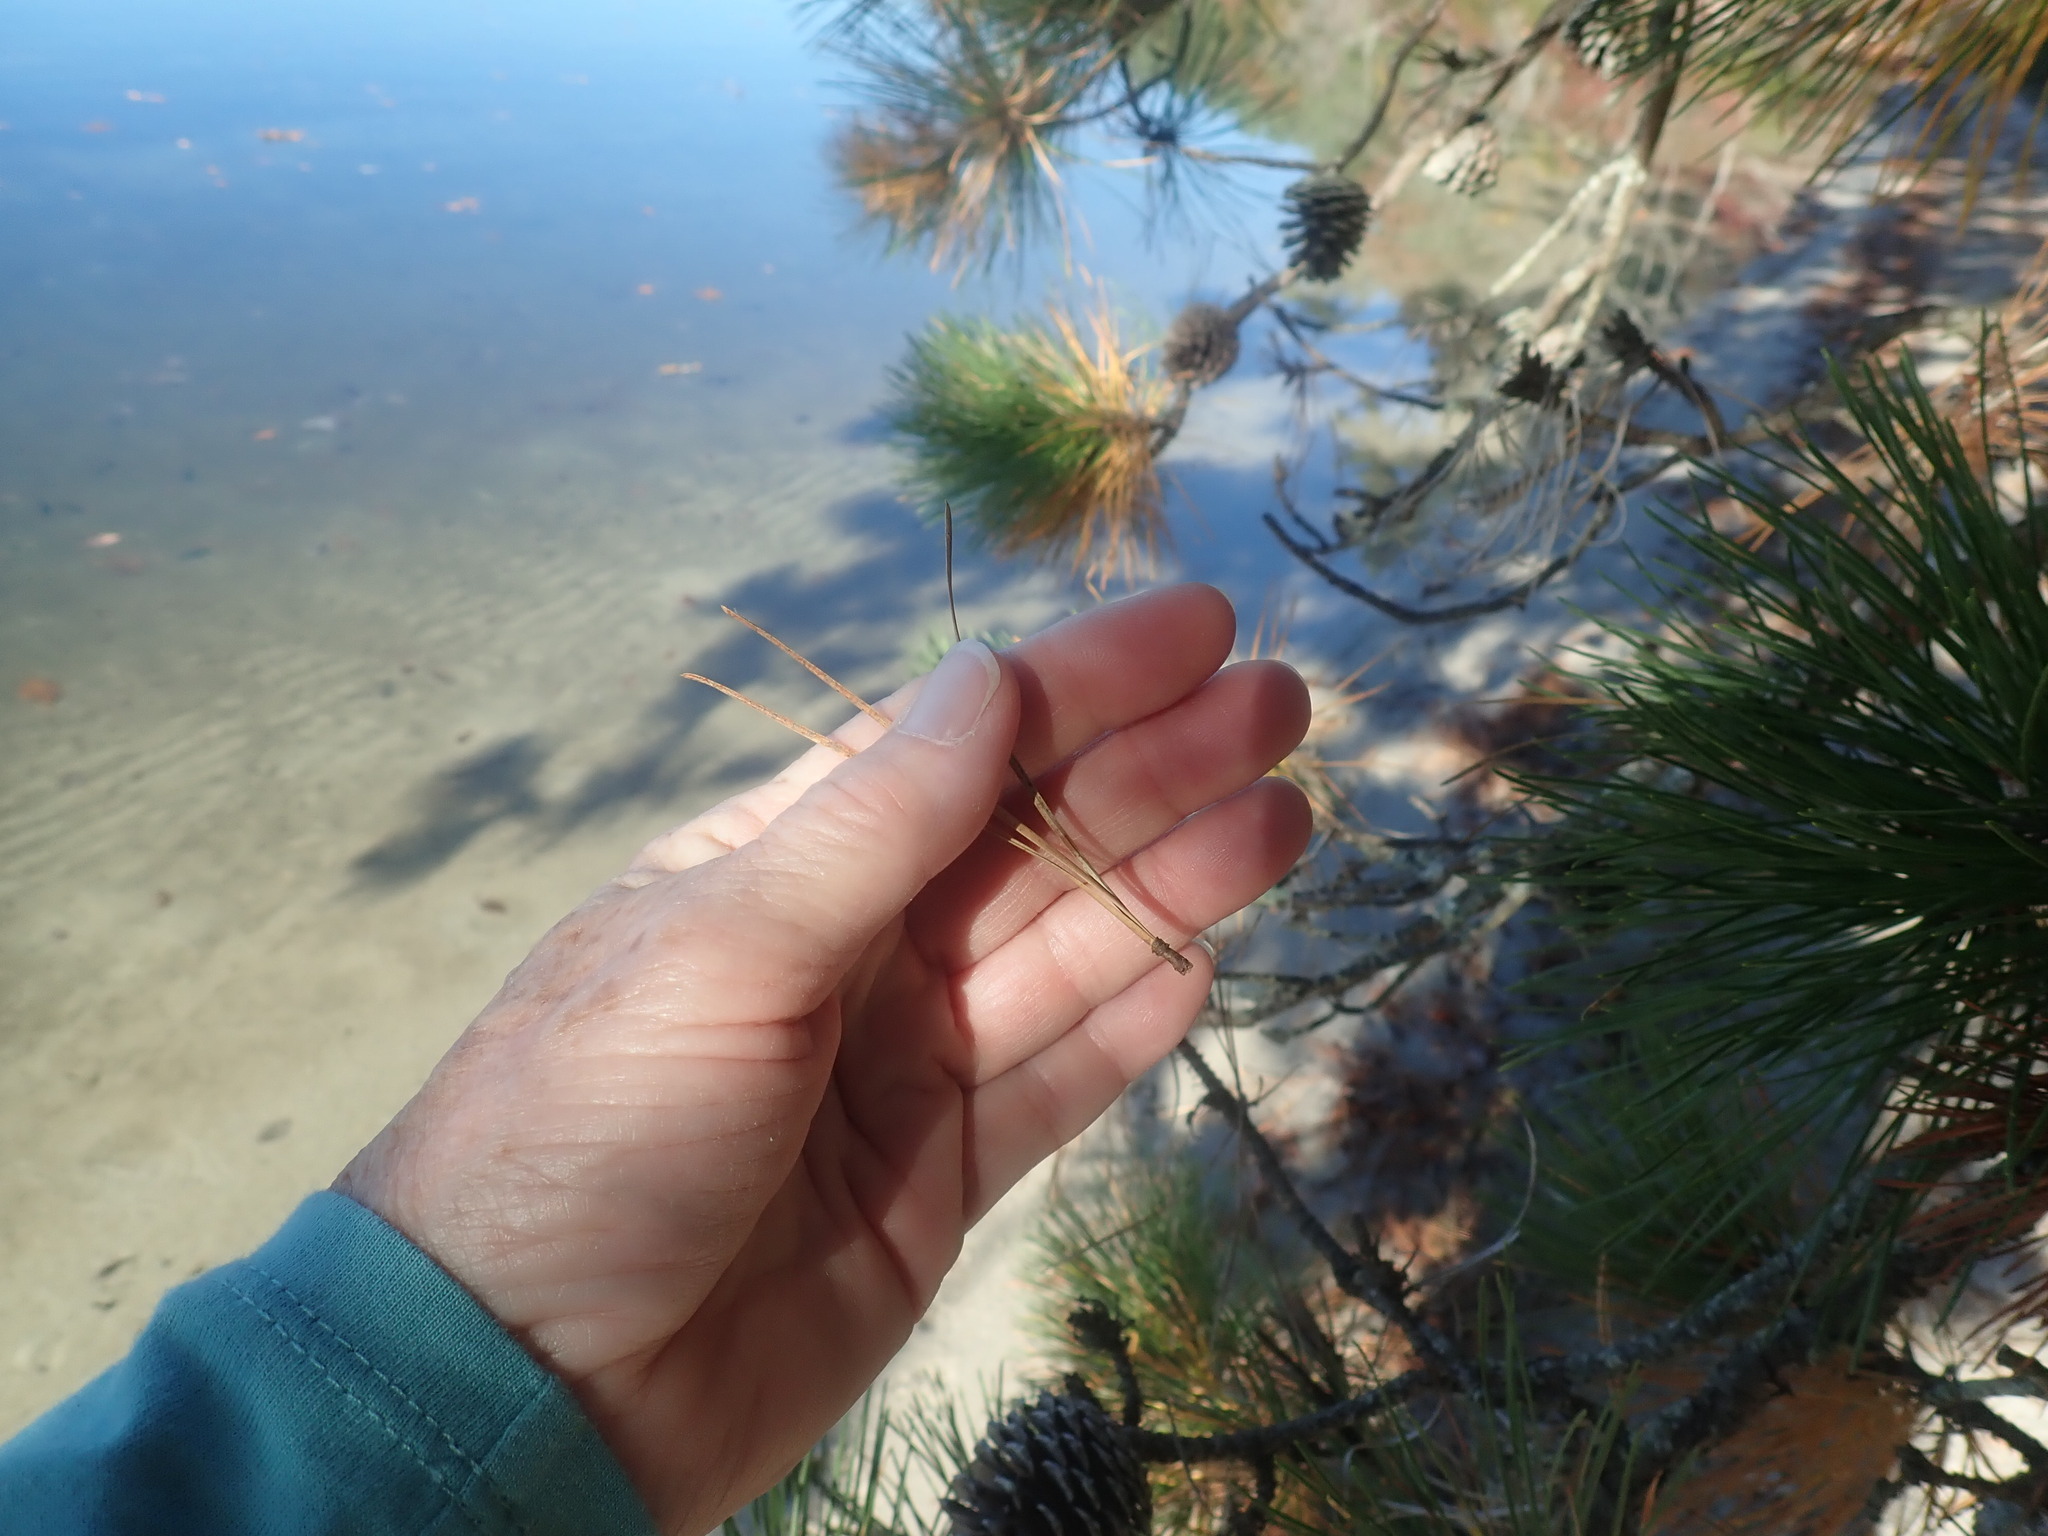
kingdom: Plantae
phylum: Tracheophyta
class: Pinopsida
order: Pinales
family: Pinaceae
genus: Pinus
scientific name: Pinus rigida
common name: Pitch pine
